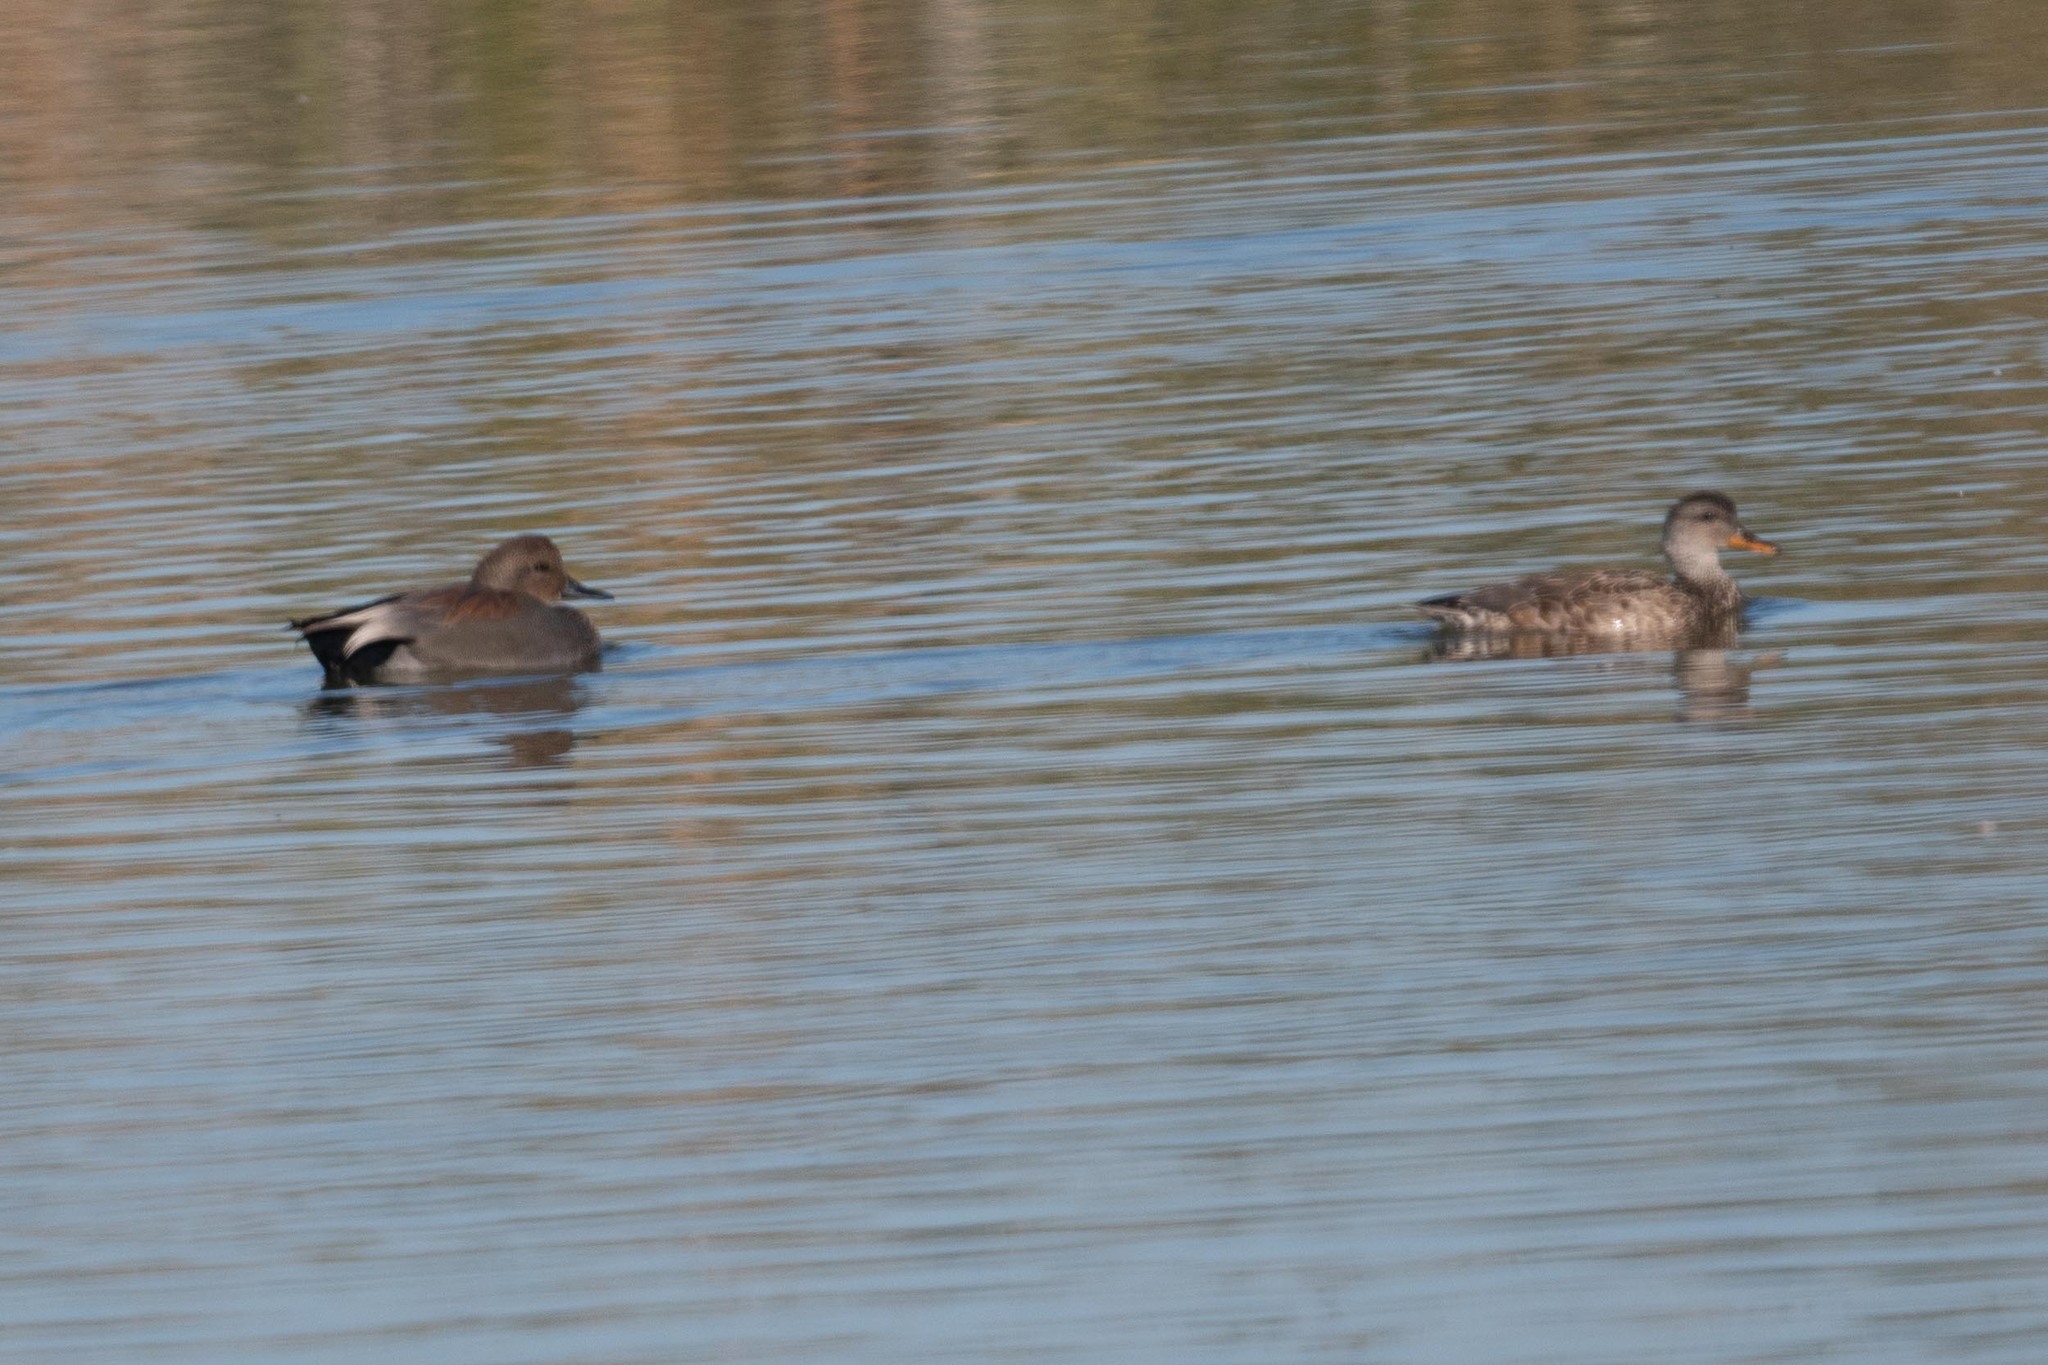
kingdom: Animalia
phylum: Chordata
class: Aves
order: Anseriformes
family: Anatidae
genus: Mareca
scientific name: Mareca strepera
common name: Gadwall
